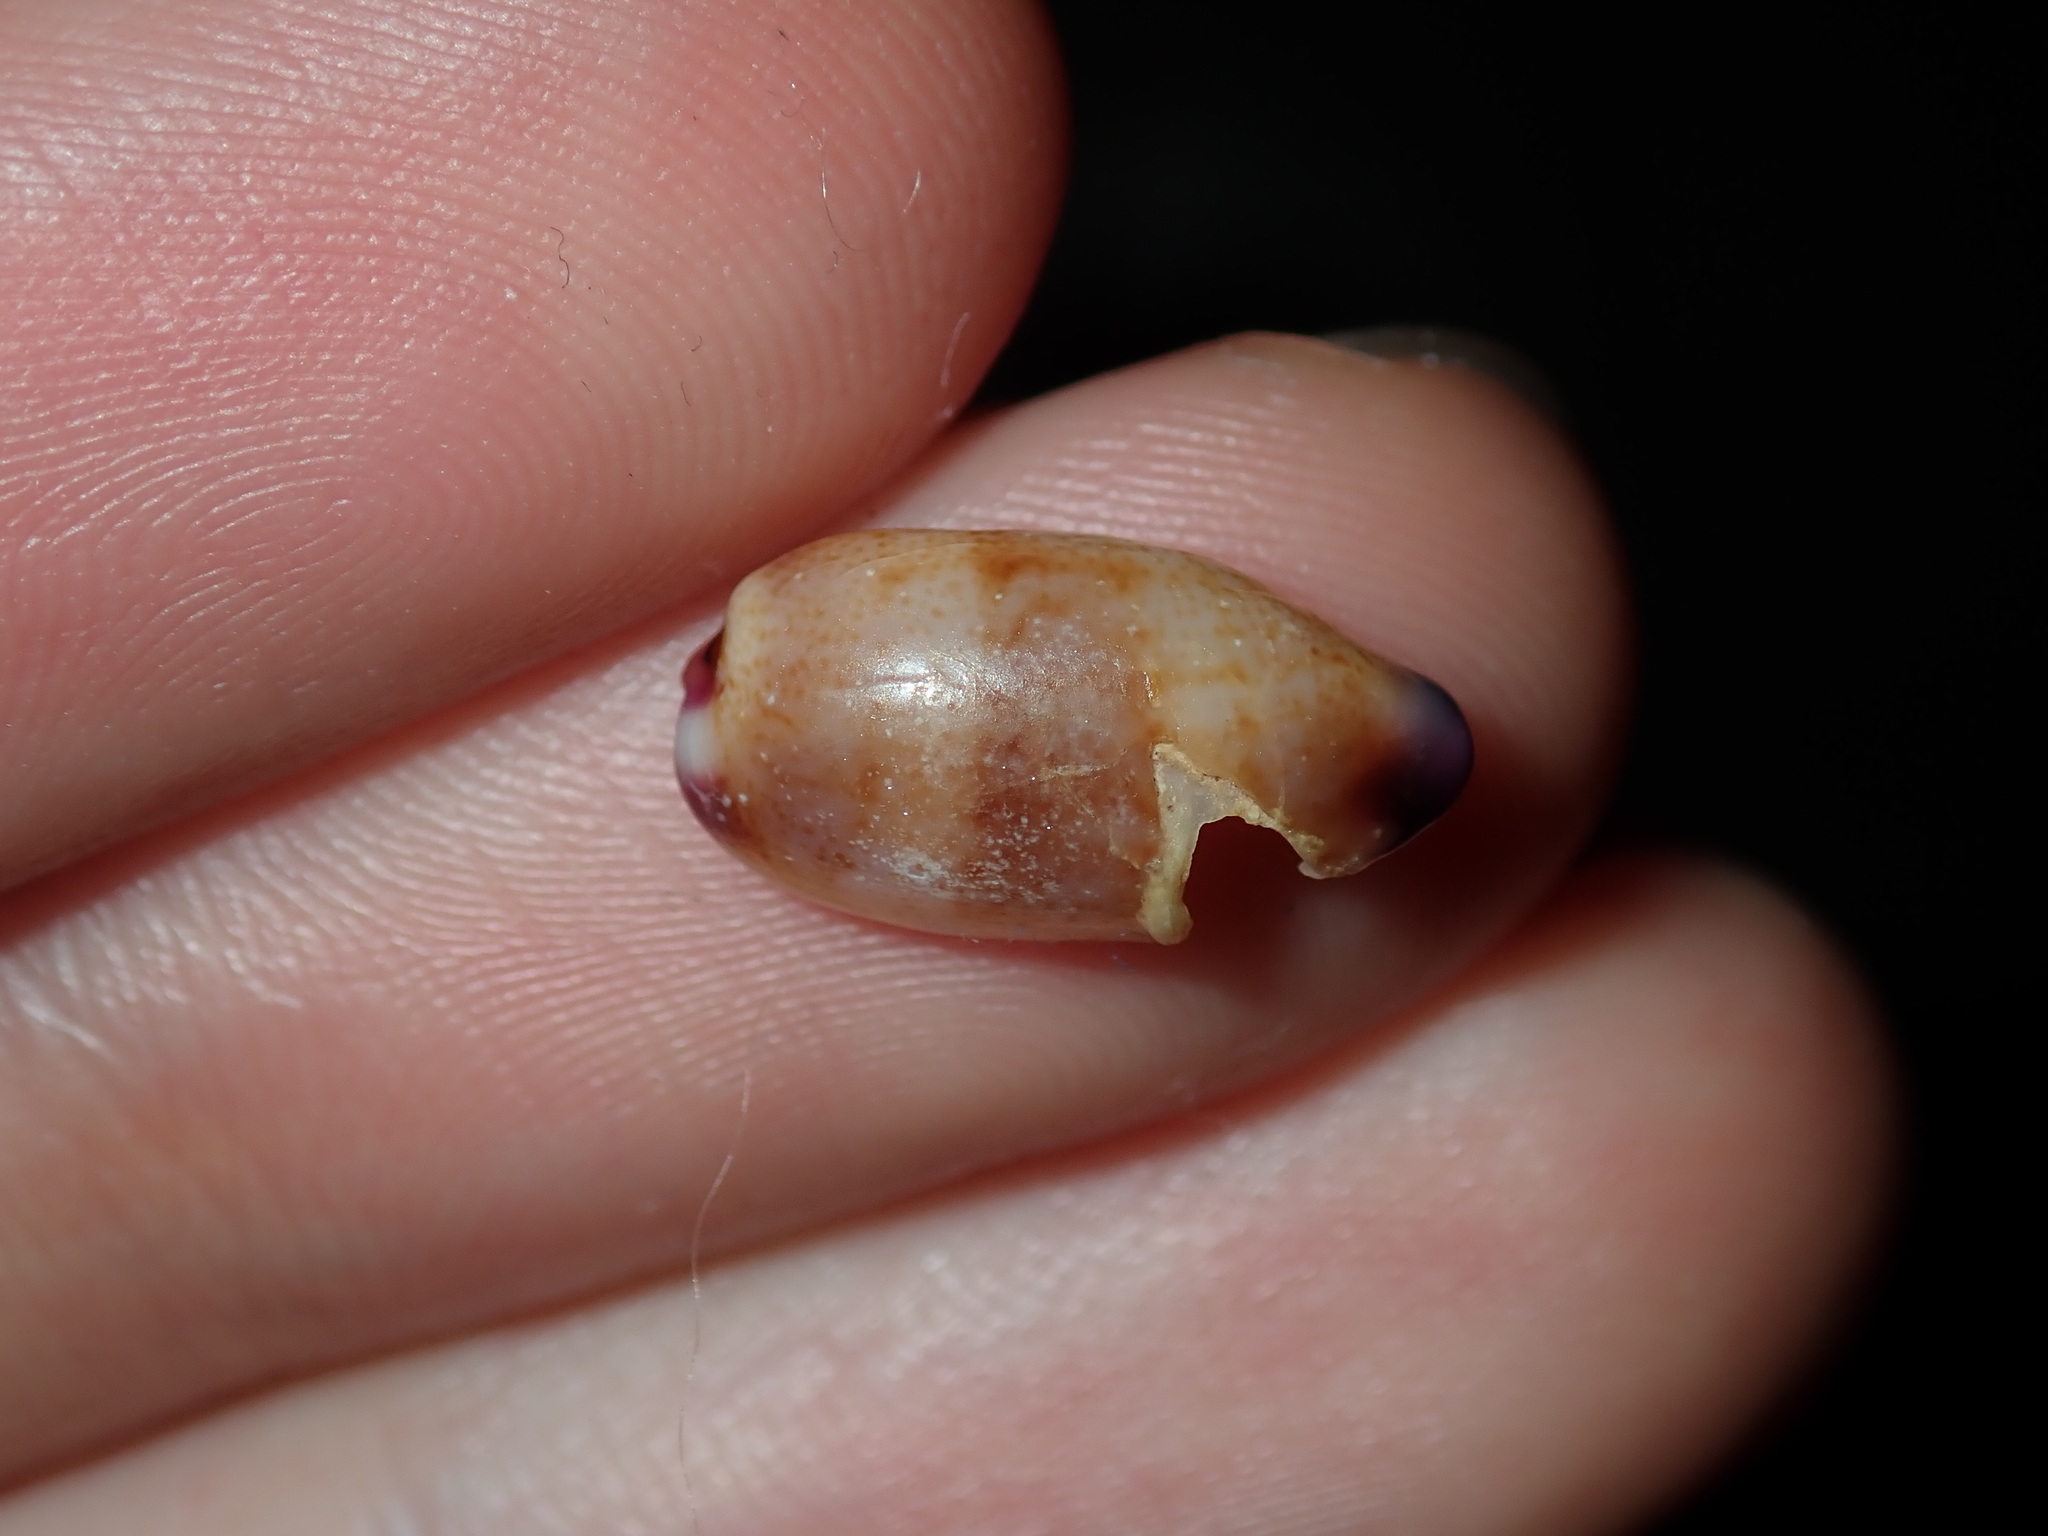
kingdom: Animalia
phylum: Mollusca
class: Gastropoda
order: Littorinimorpha
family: Cypraeidae
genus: Purpuradusta
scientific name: Purpuradusta fimbriata
